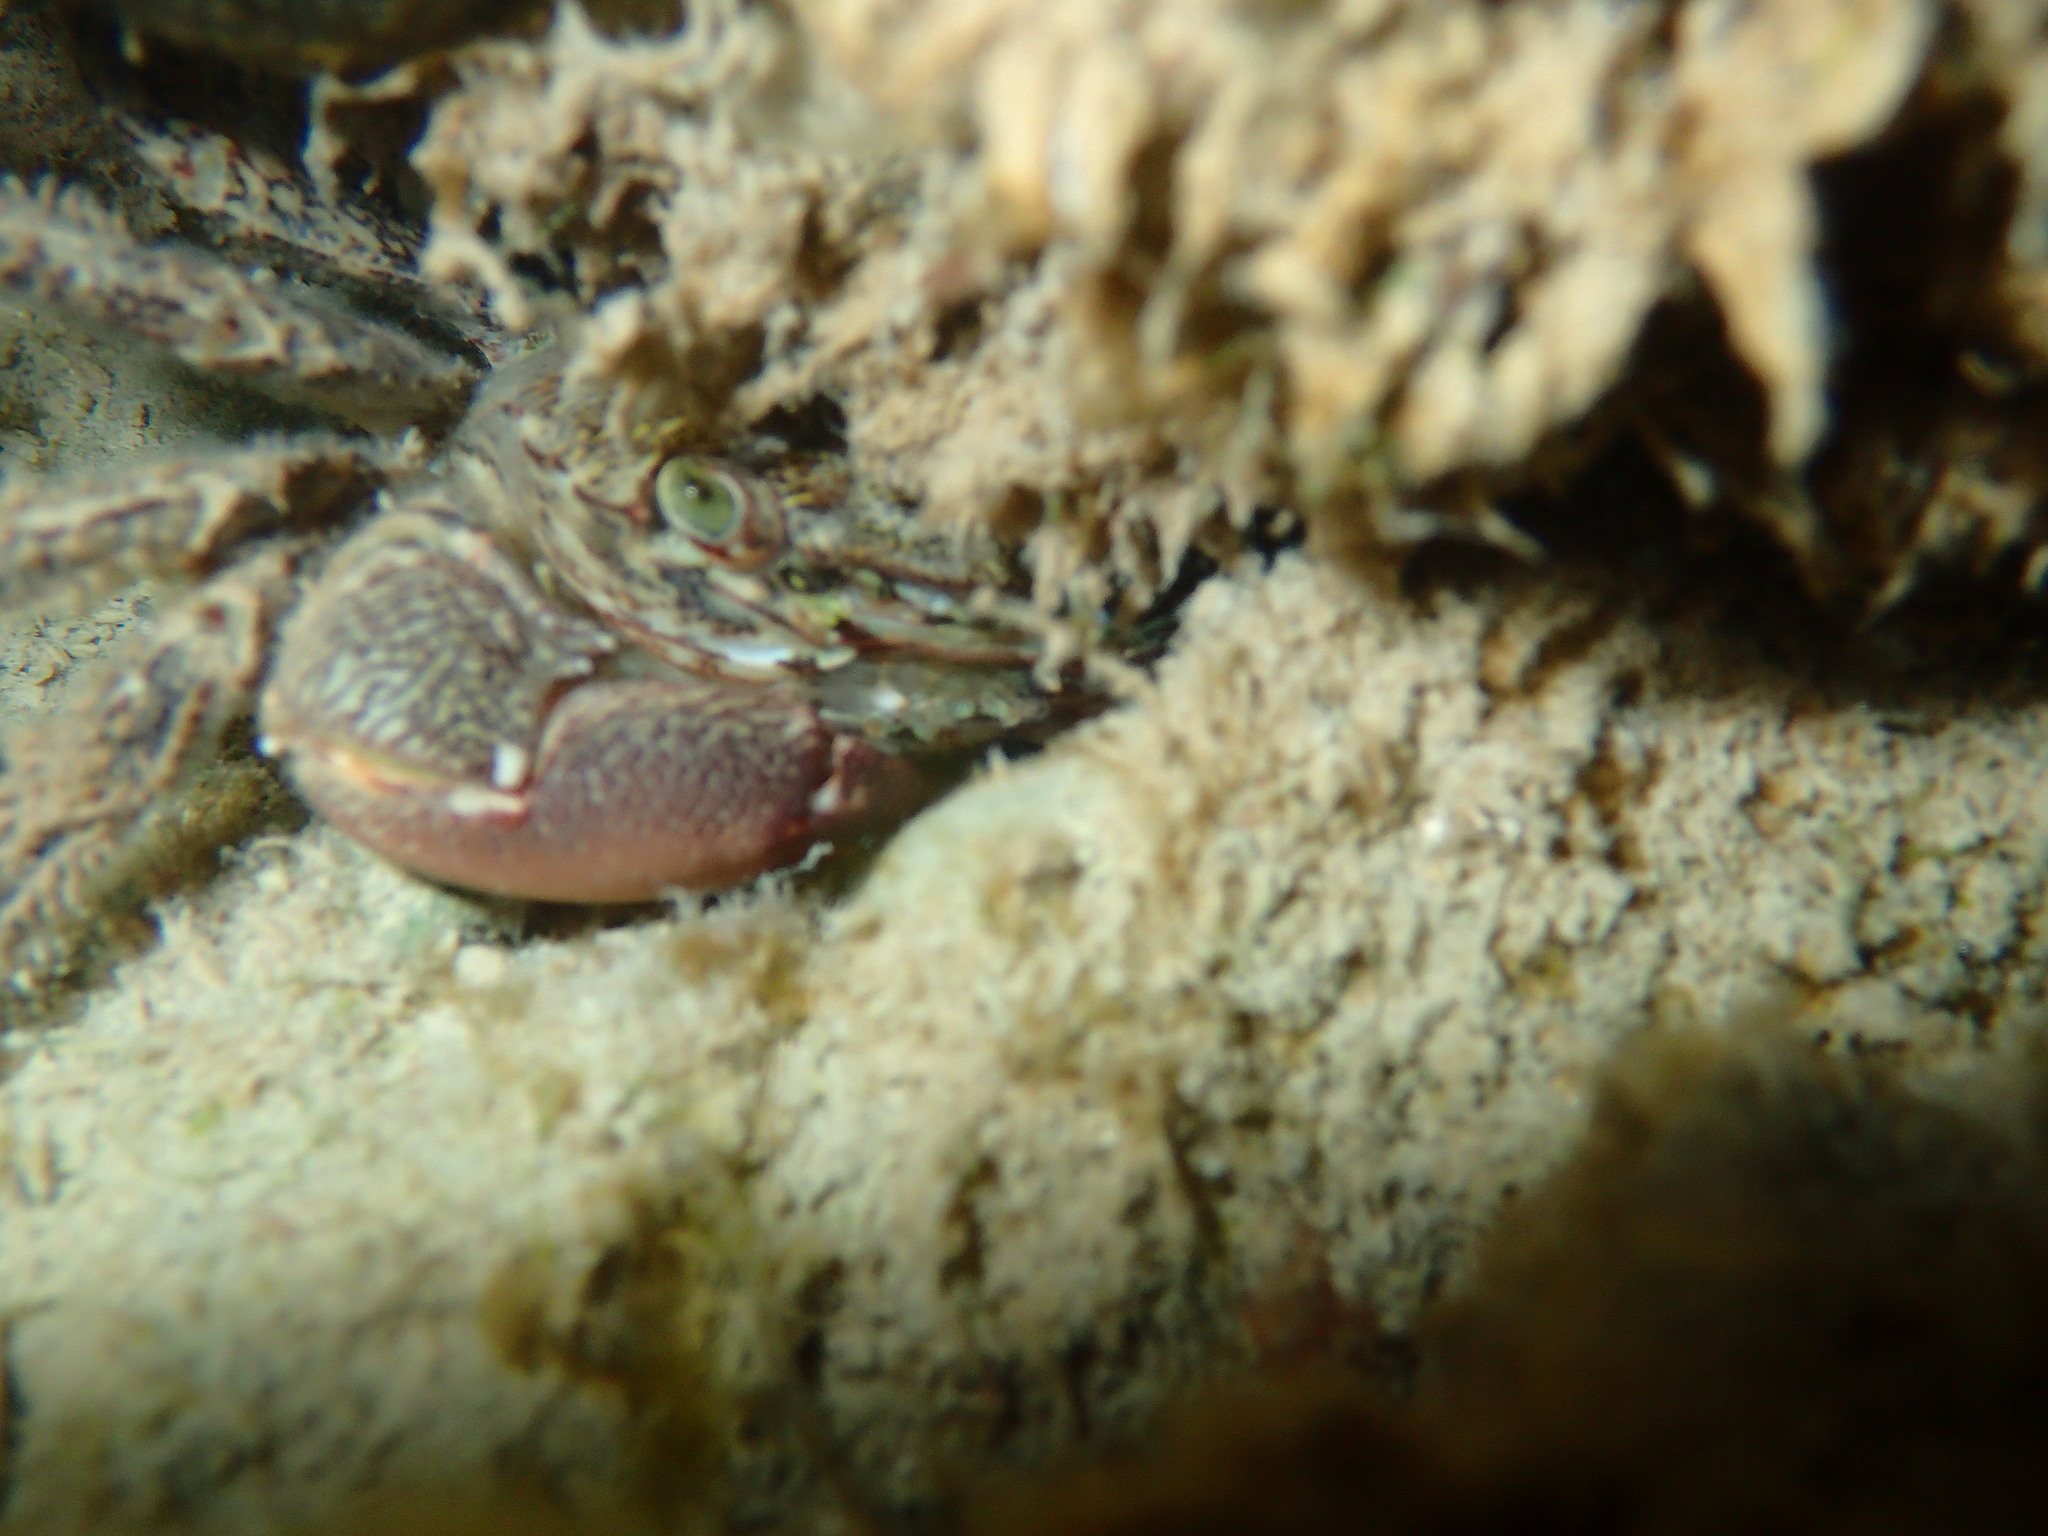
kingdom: Animalia
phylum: Arthropoda
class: Malacostraca
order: Decapoda
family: Grapsidae
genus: Pachygrapsus
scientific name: Pachygrapsus marmoratus
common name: Marbled rock crab
